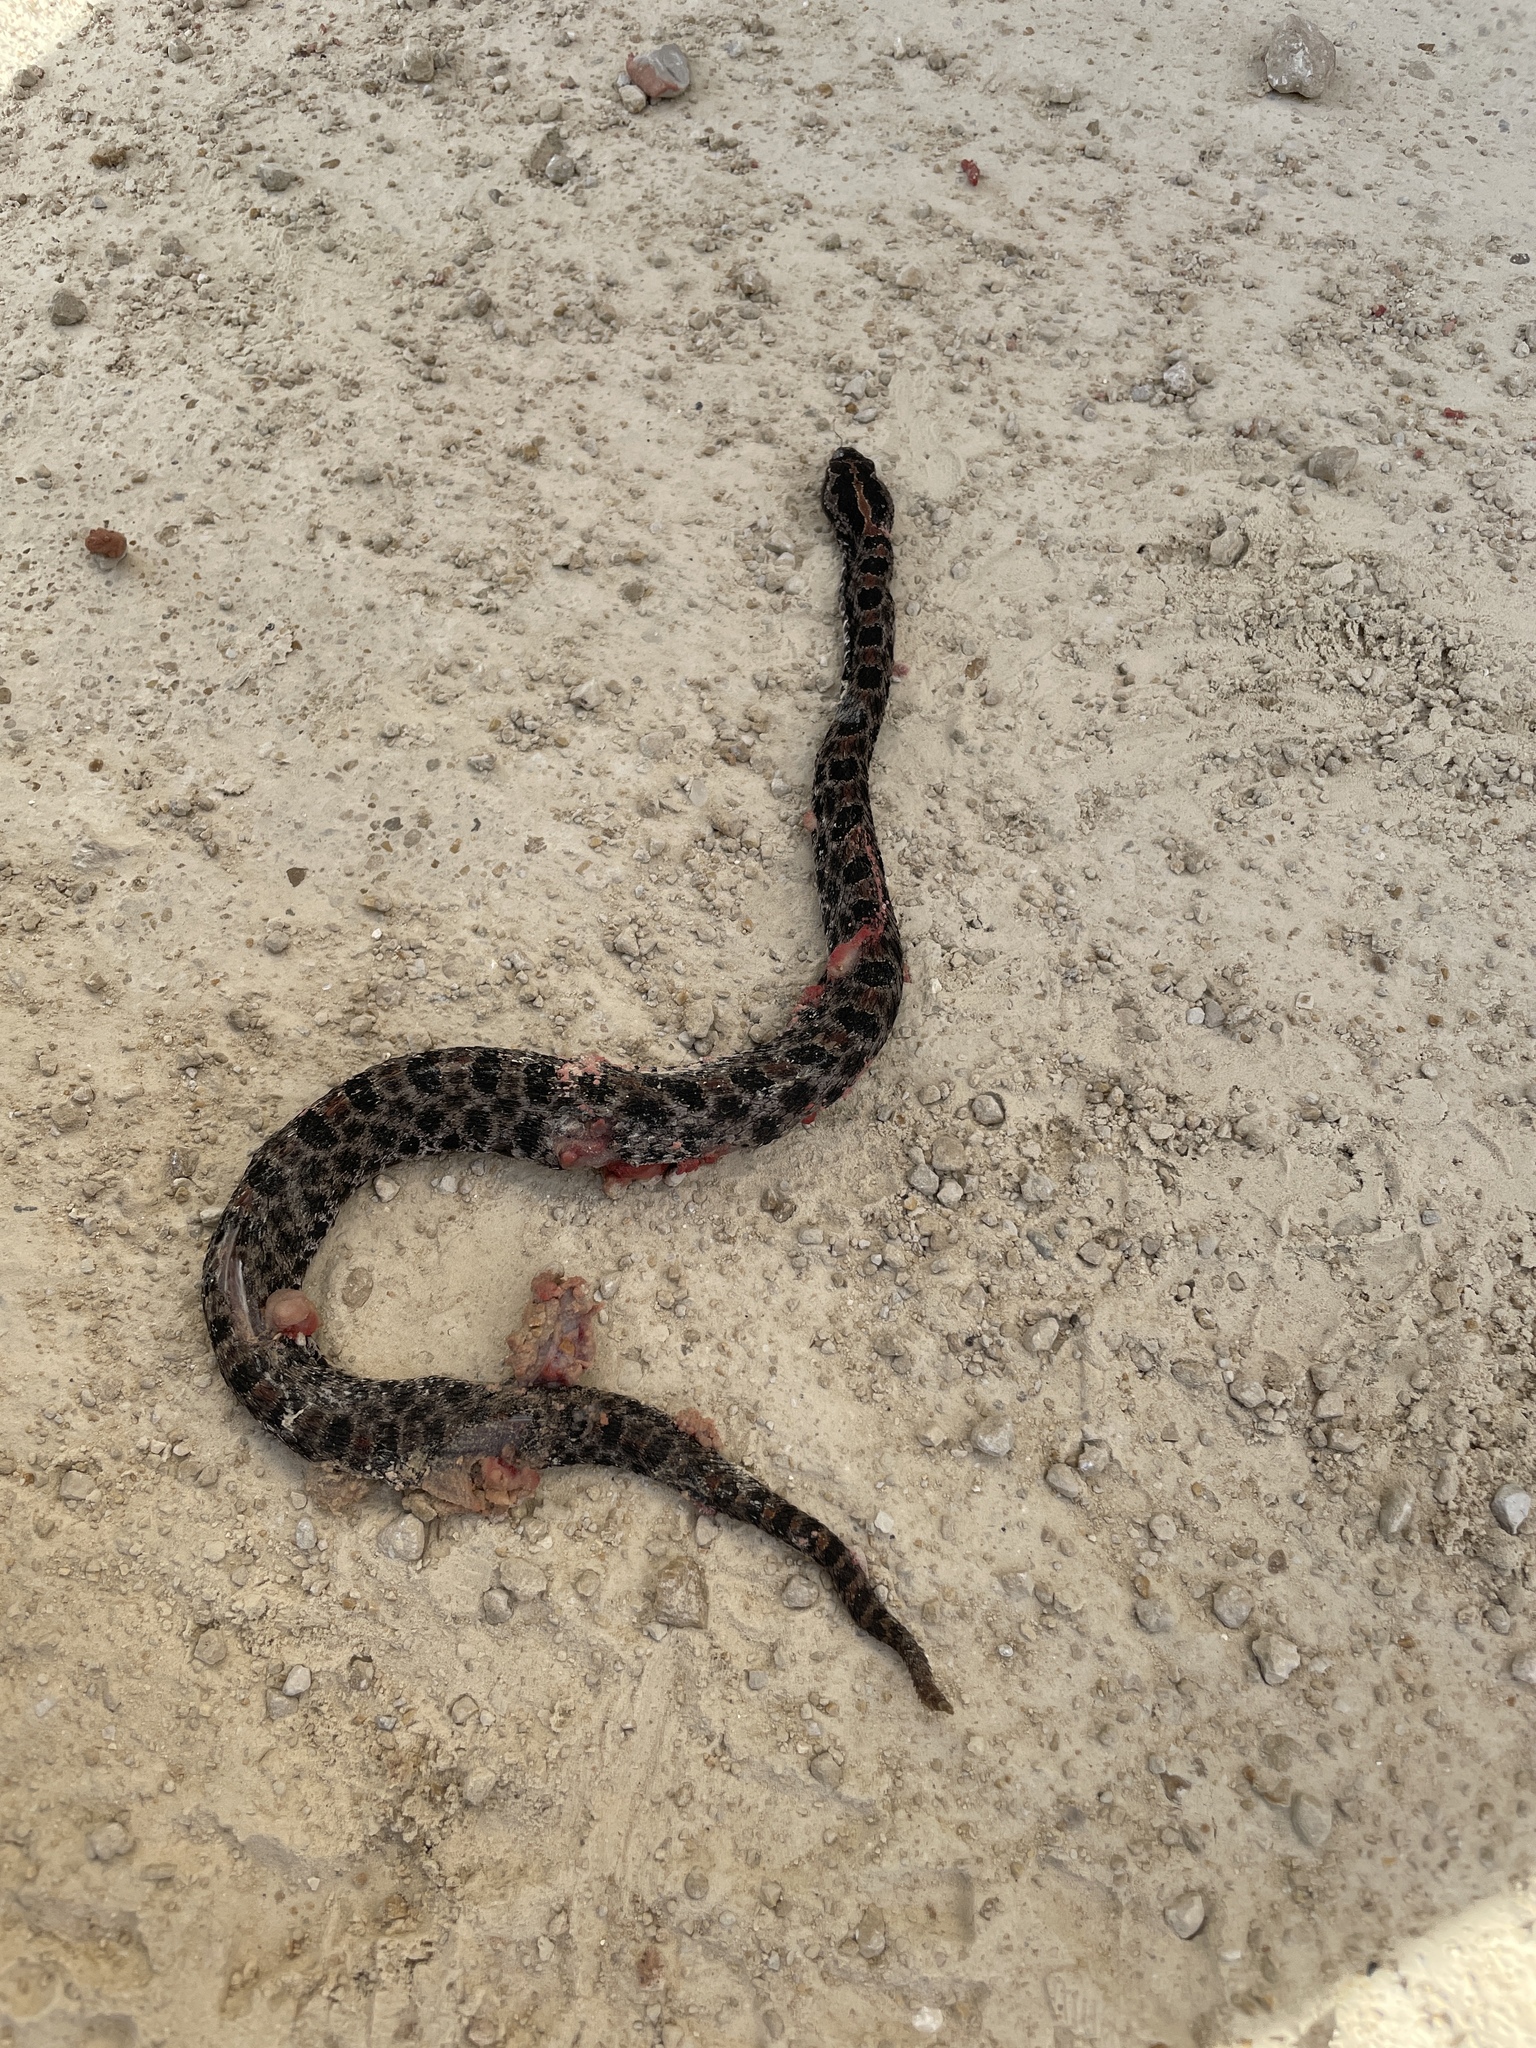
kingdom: Animalia
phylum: Chordata
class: Squamata
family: Viperidae
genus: Sistrurus
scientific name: Sistrurus miliarius
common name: Pygmy rattlesnake
